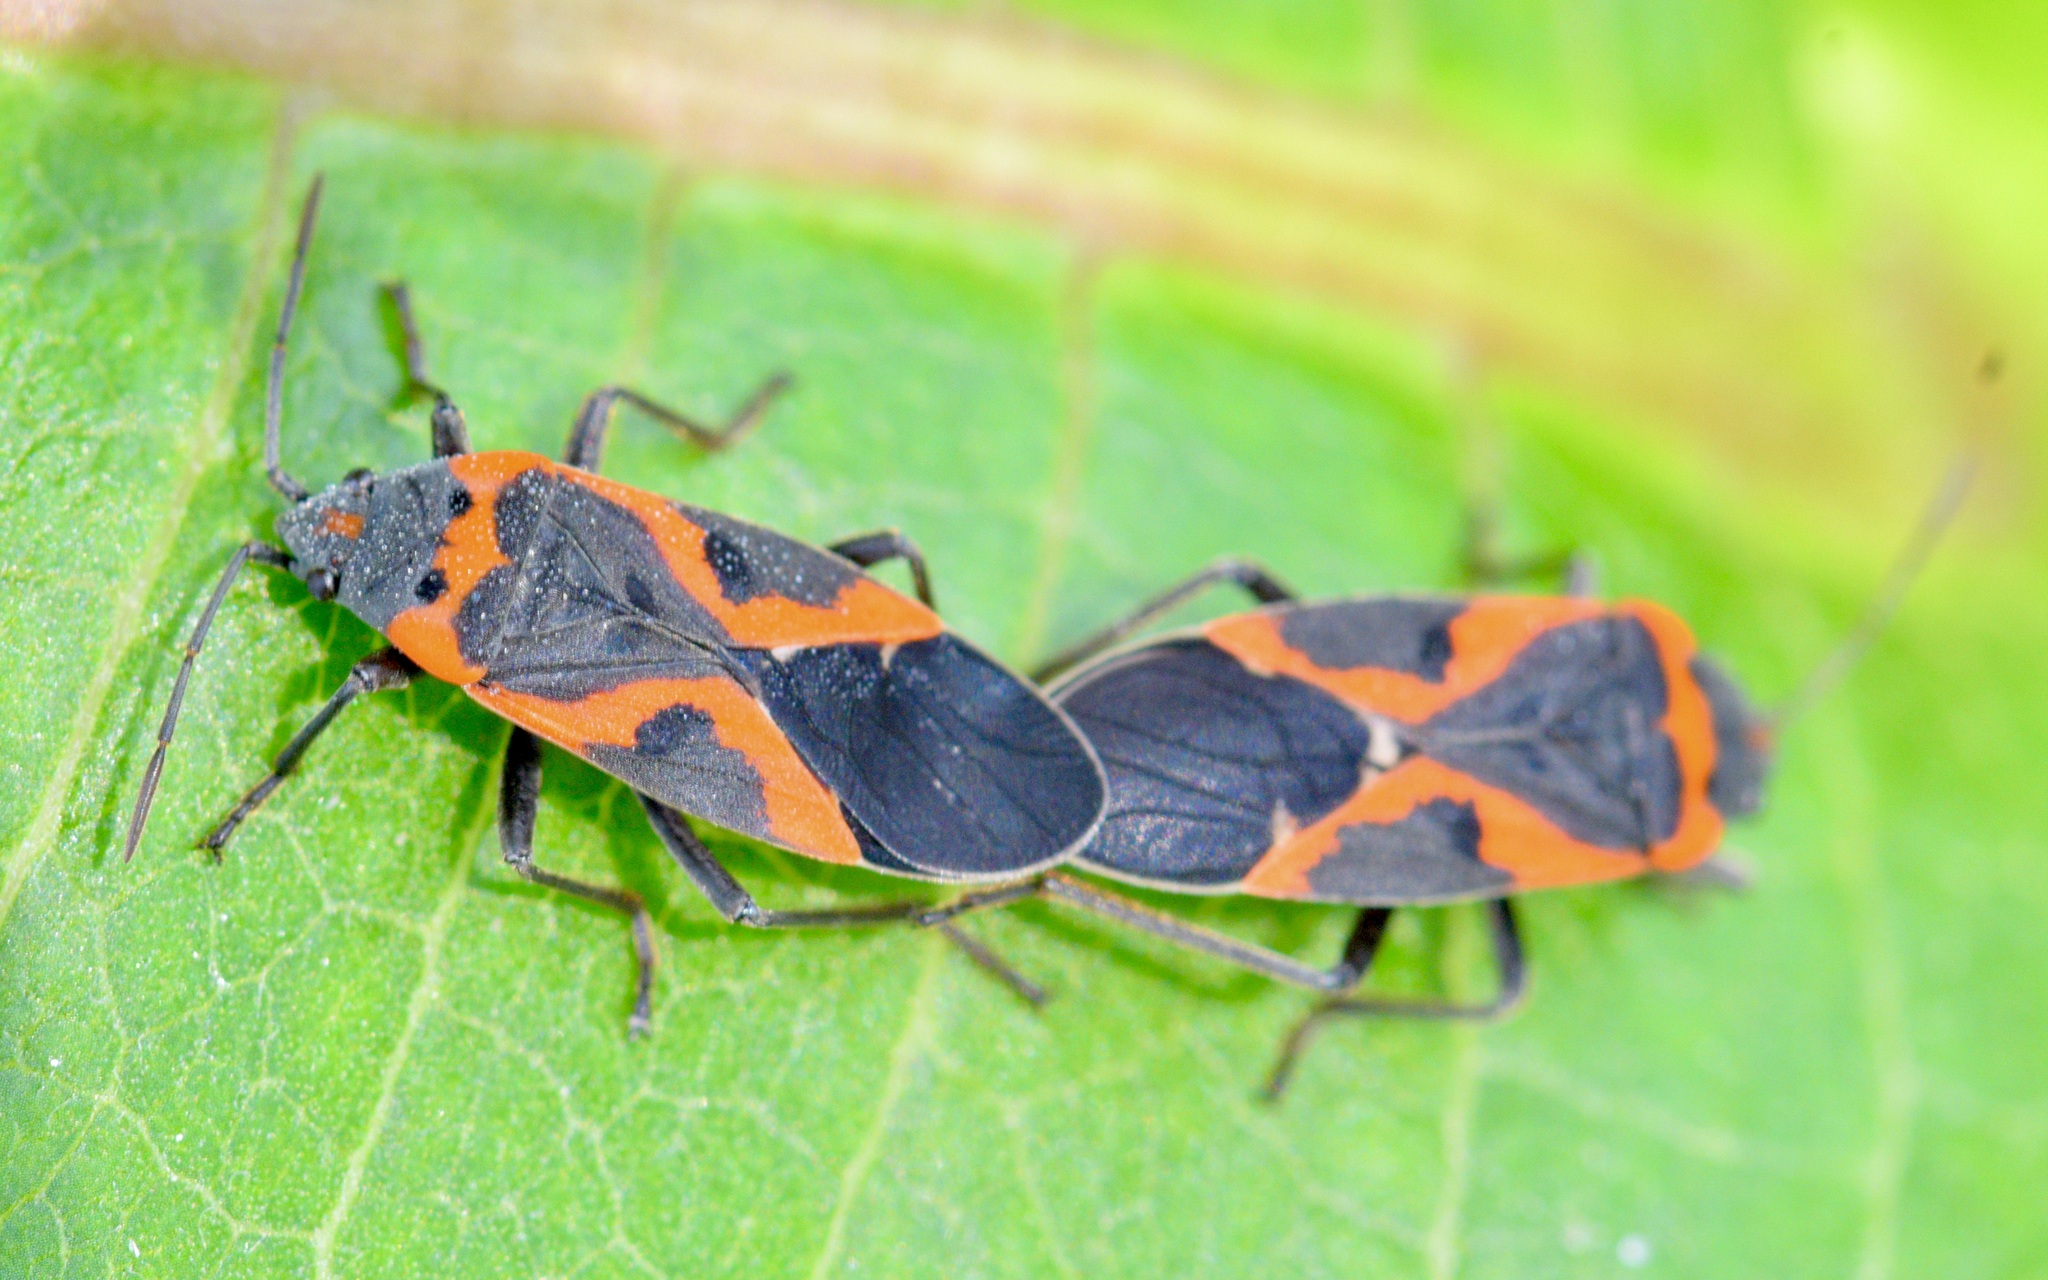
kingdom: Animalia
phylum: Arthropoda
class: Insecta
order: Hemiptera
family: Lygaeidae
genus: Lygaeus
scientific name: Lygaeus kalmii
